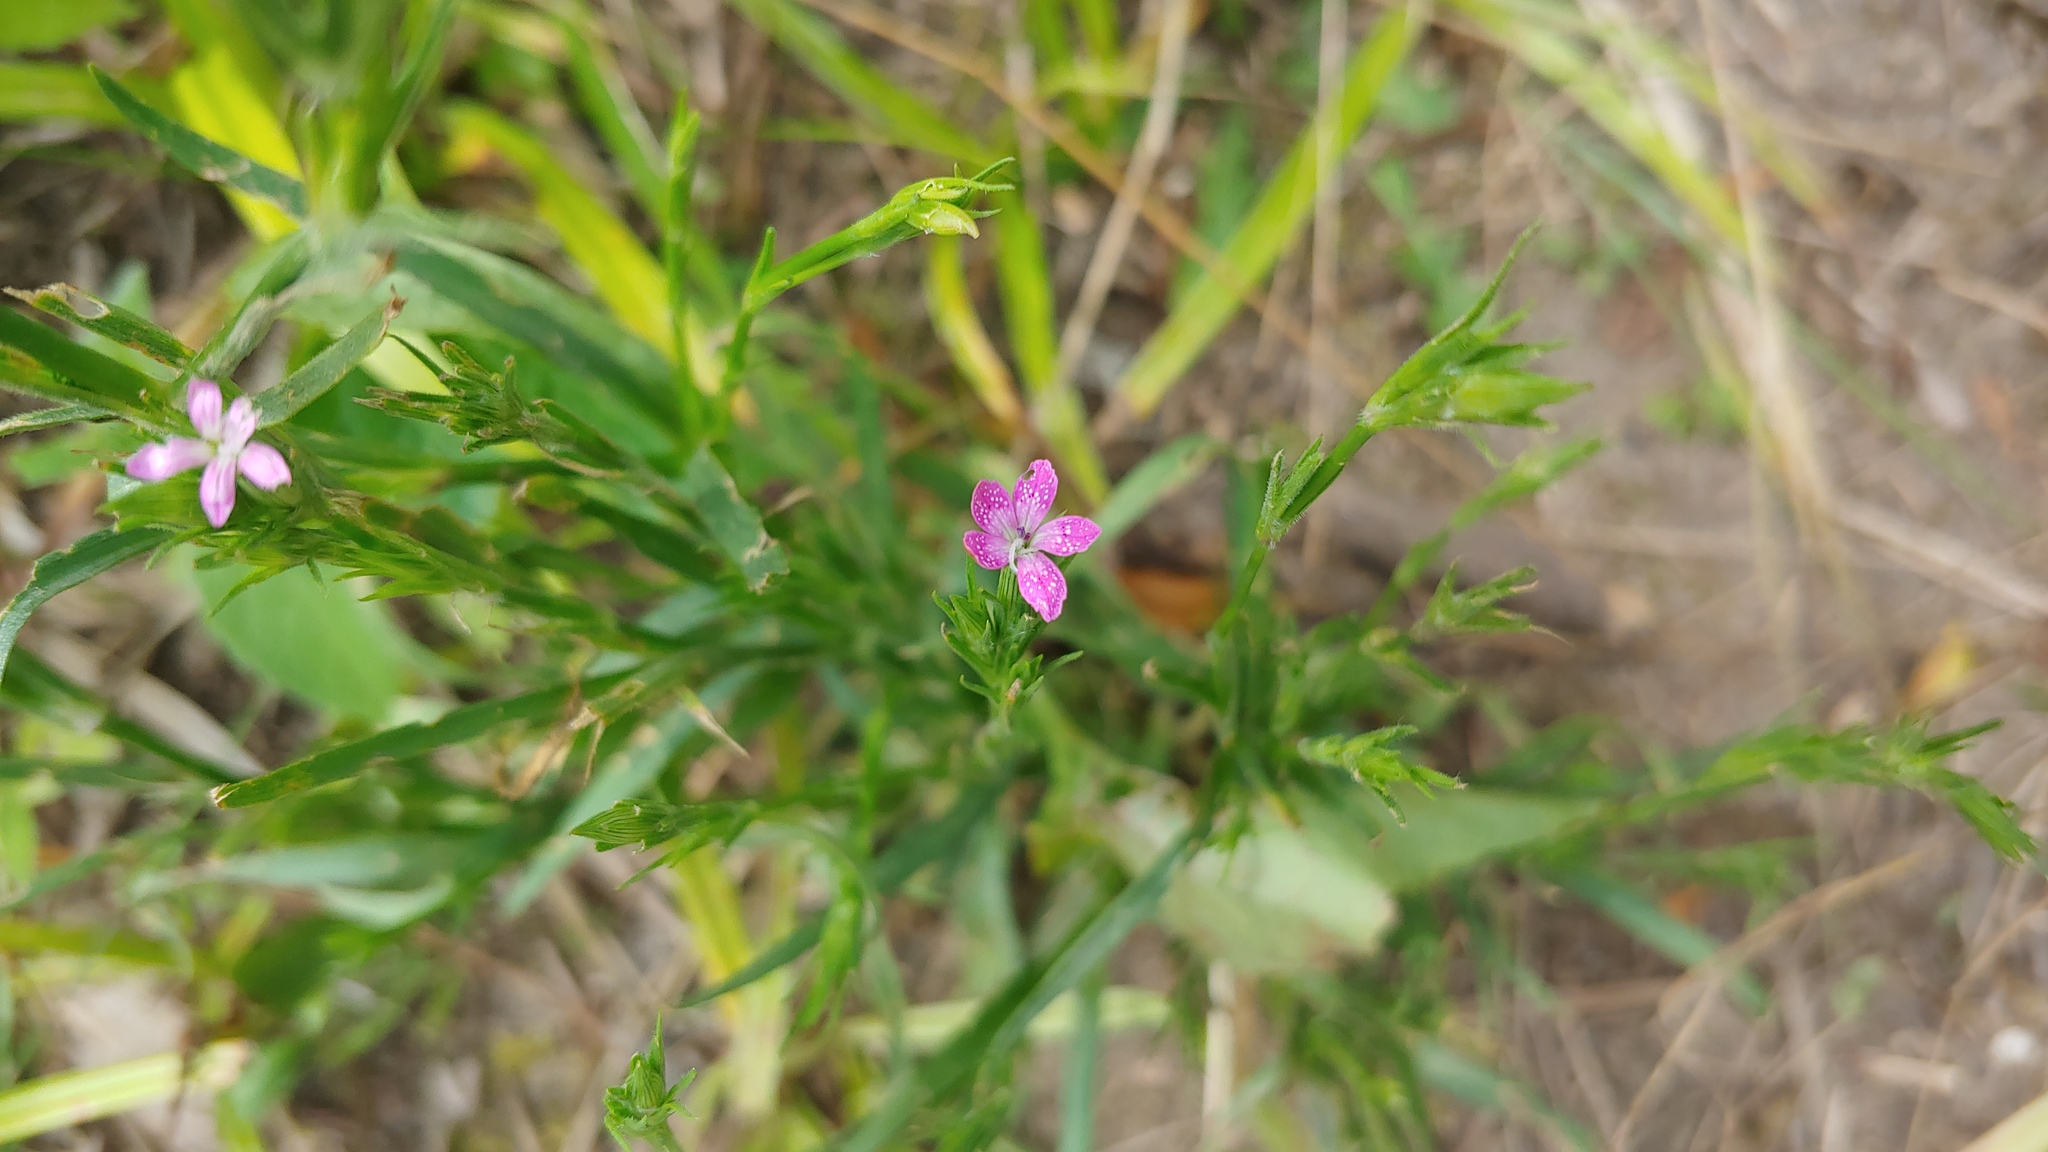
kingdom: Plantae
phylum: Tracheophyta
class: Magnoliopsida
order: Caryophyllales
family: Caryophyllaceae
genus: Dianthus
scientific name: Dianthus armeria
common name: Deptford pink
